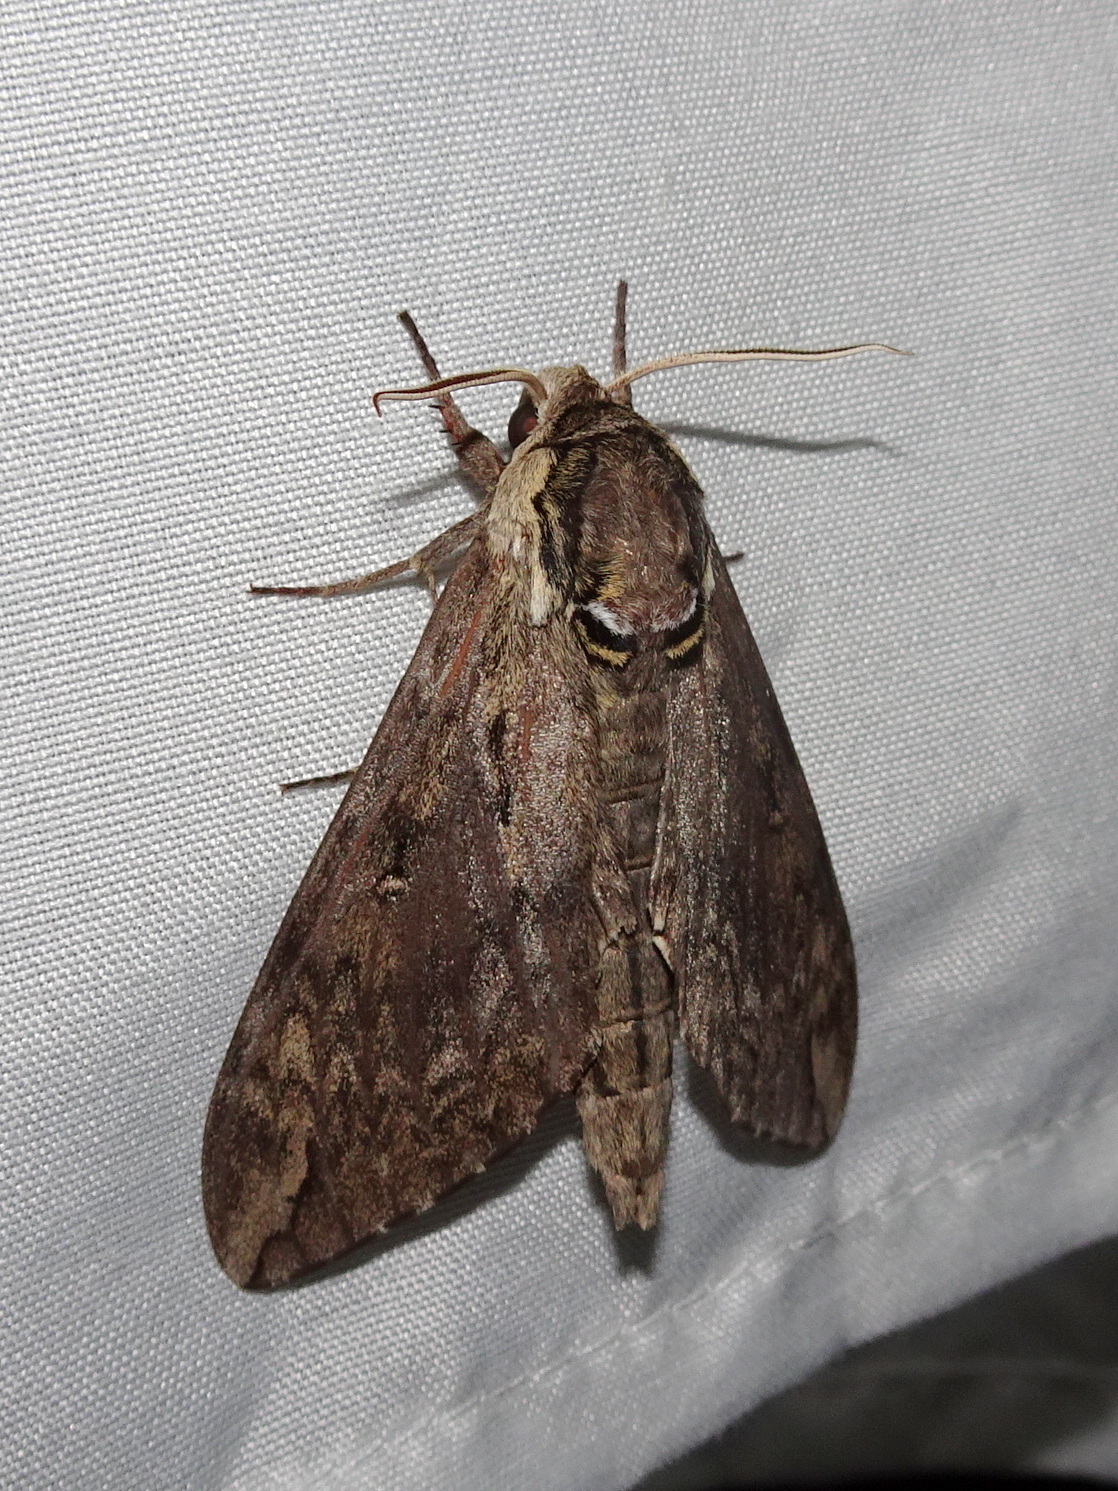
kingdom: Animalia
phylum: Arthropoda
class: Insecta
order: Lepidoptera
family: Sphingidae
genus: Ceratomia
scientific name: Ceratomia catalpae
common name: Catalpa hornworm
